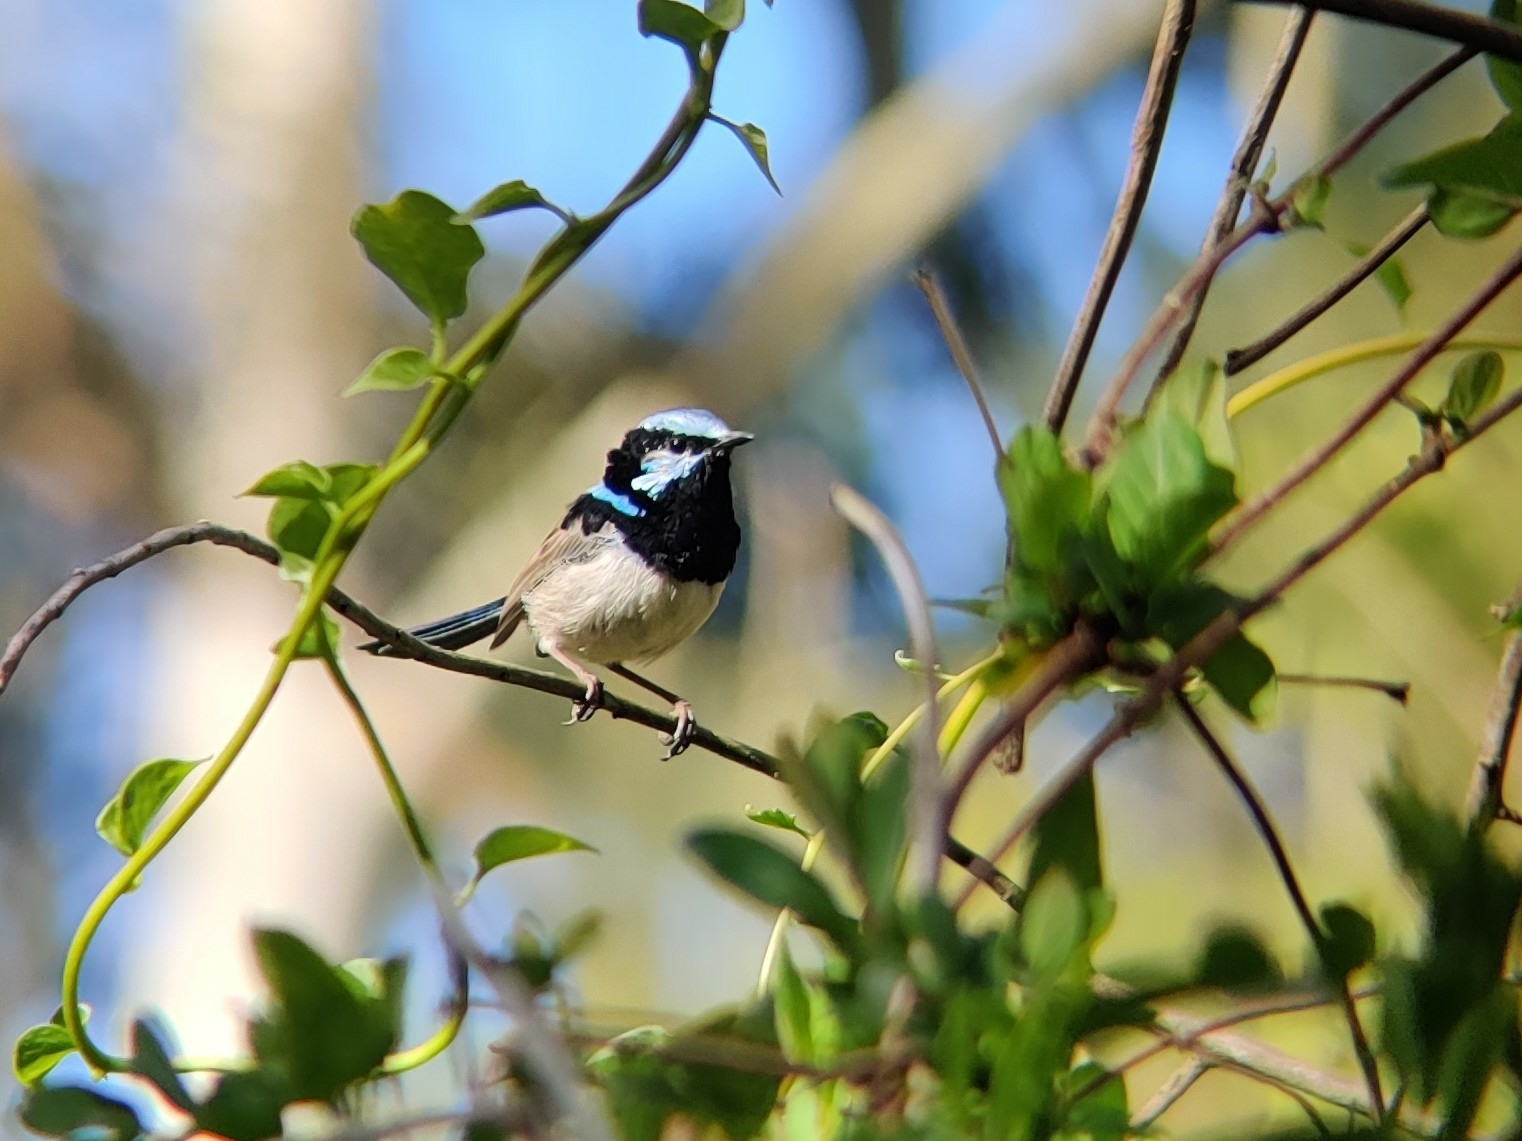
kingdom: Animalia
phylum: Chordata
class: Aves
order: Passeriformes
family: Maluridae
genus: Malurus
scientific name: Malurus cyaneus
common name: Superb fairywren
